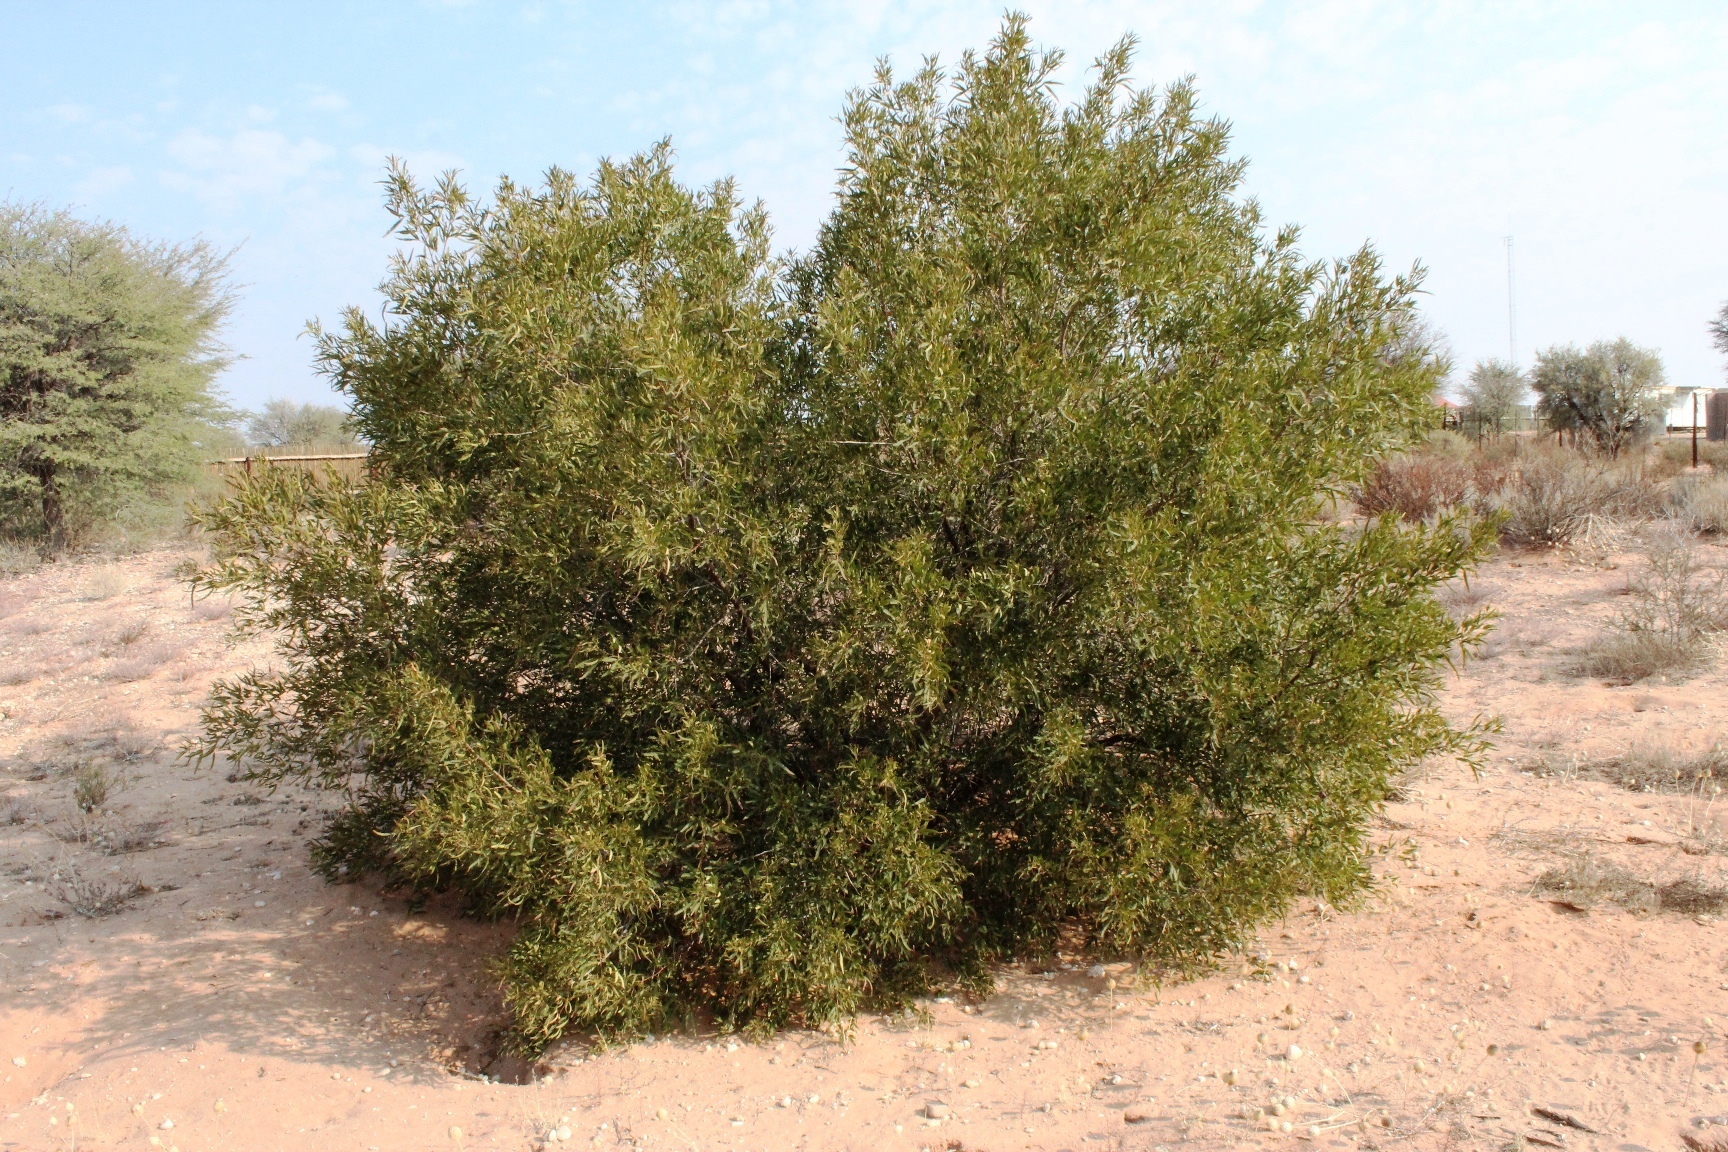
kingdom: Plantae
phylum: Tracheophyta
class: Magnoliopsida
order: Sapindales
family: Anacardiaceae
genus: Searsia
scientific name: Searsia lancea
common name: Cashew
